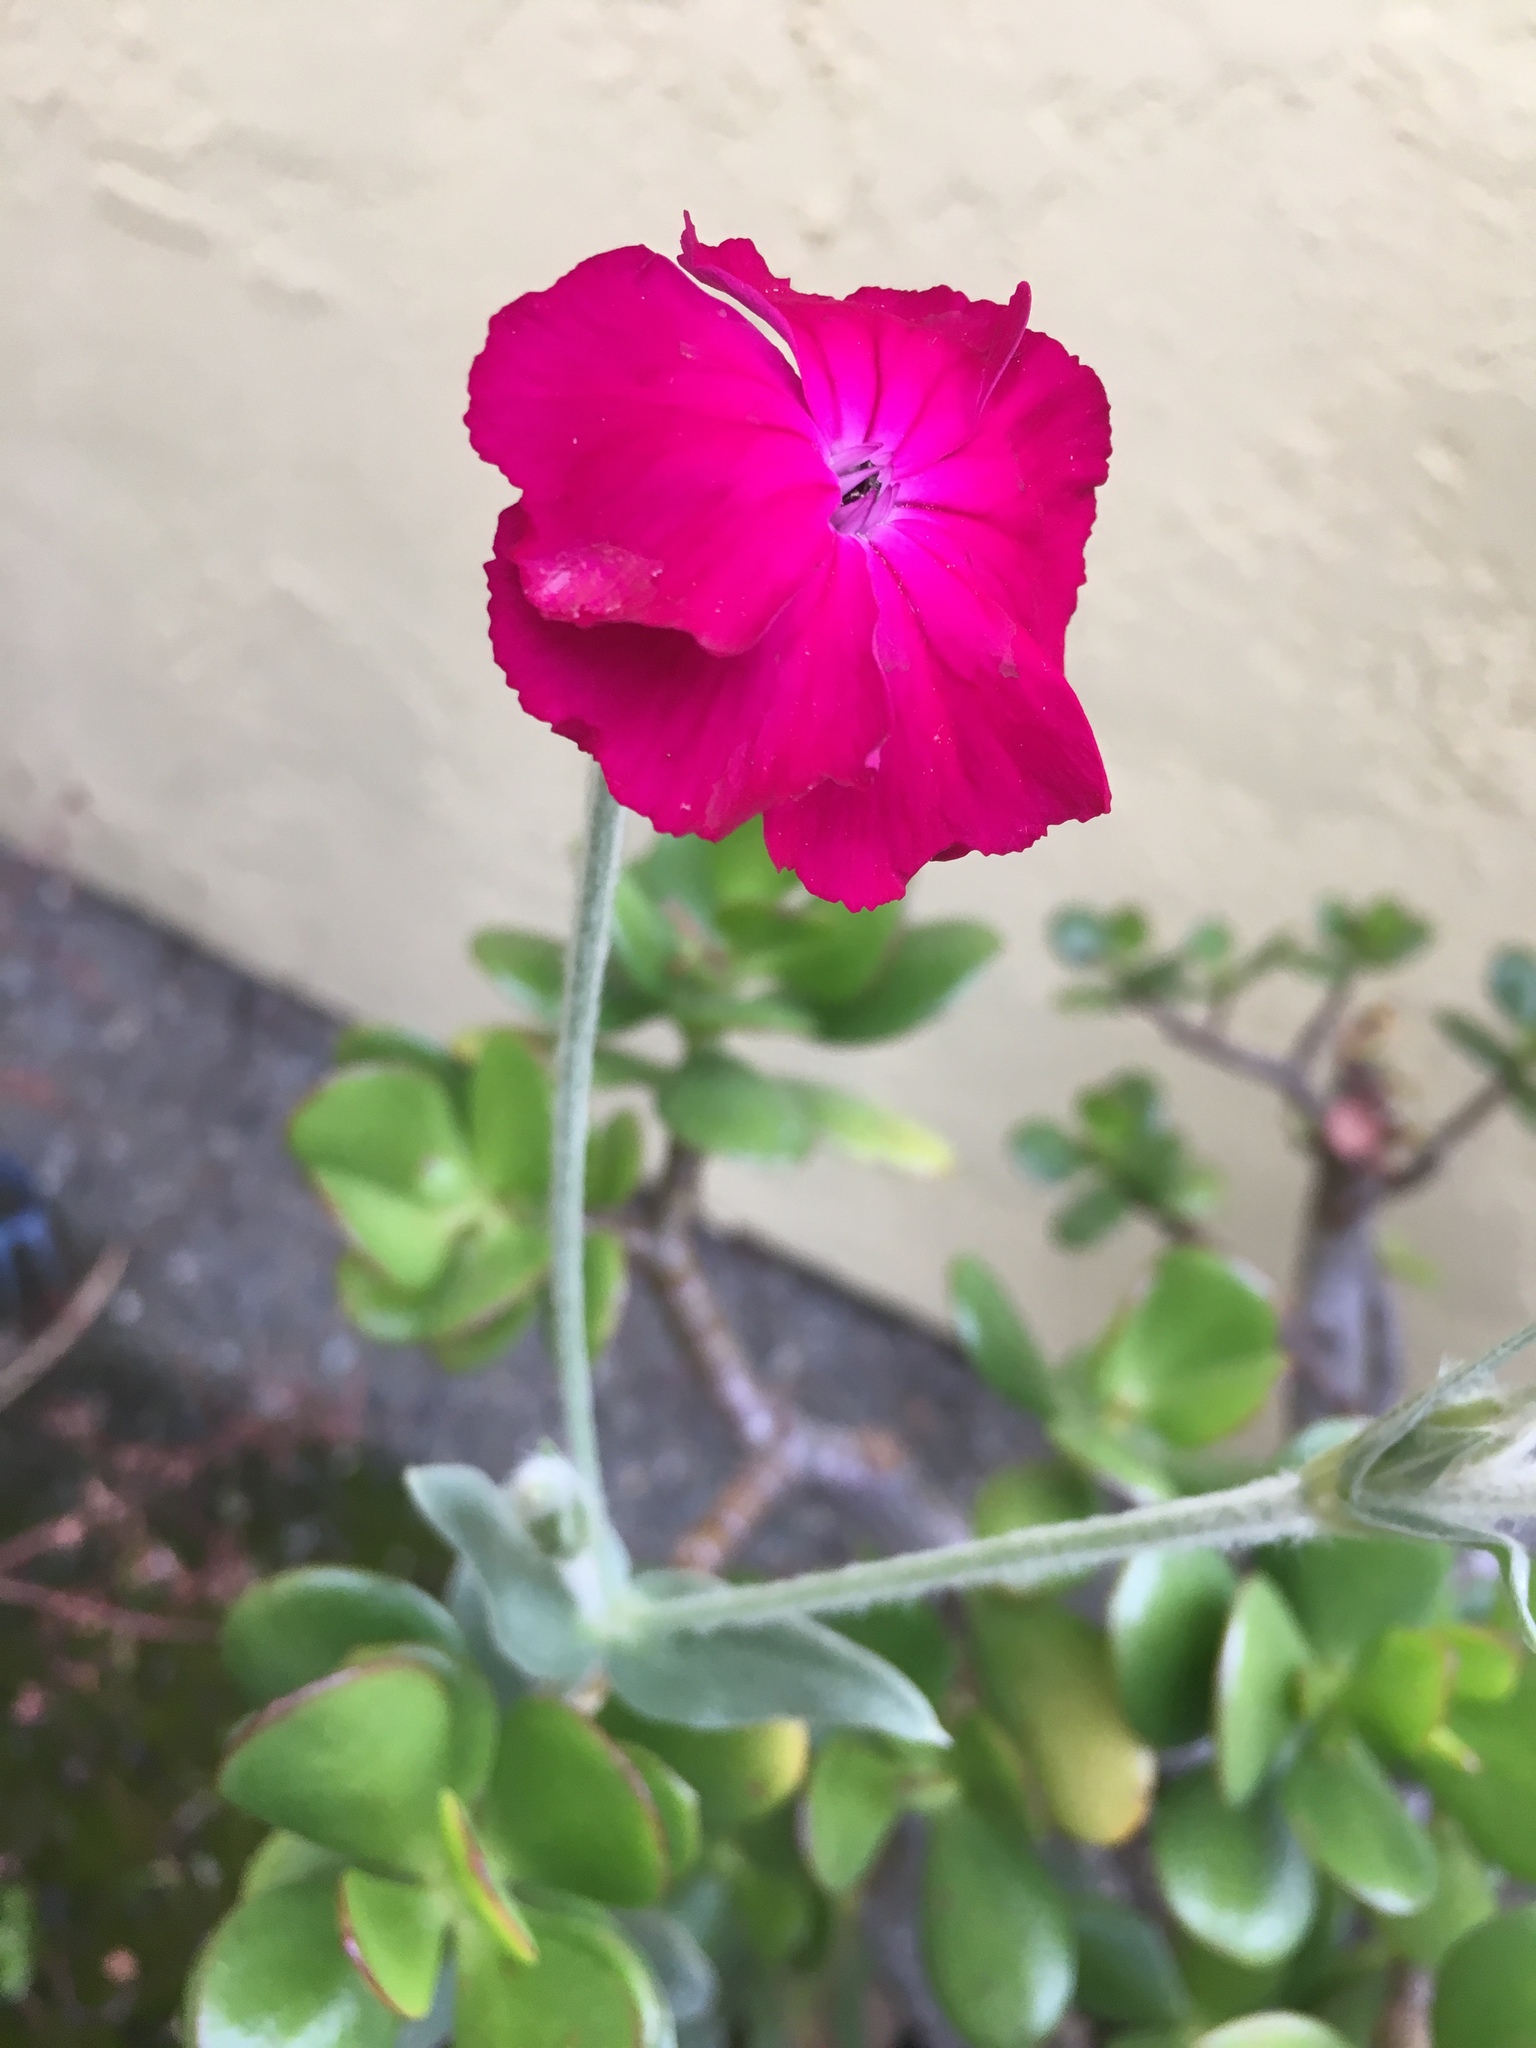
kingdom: Plantae
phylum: Tracheophyta
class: Magnoliopsida
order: Caryophyllales
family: Caryophyllaceae
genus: Silene
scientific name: Silene coronaria
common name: Rose campion
